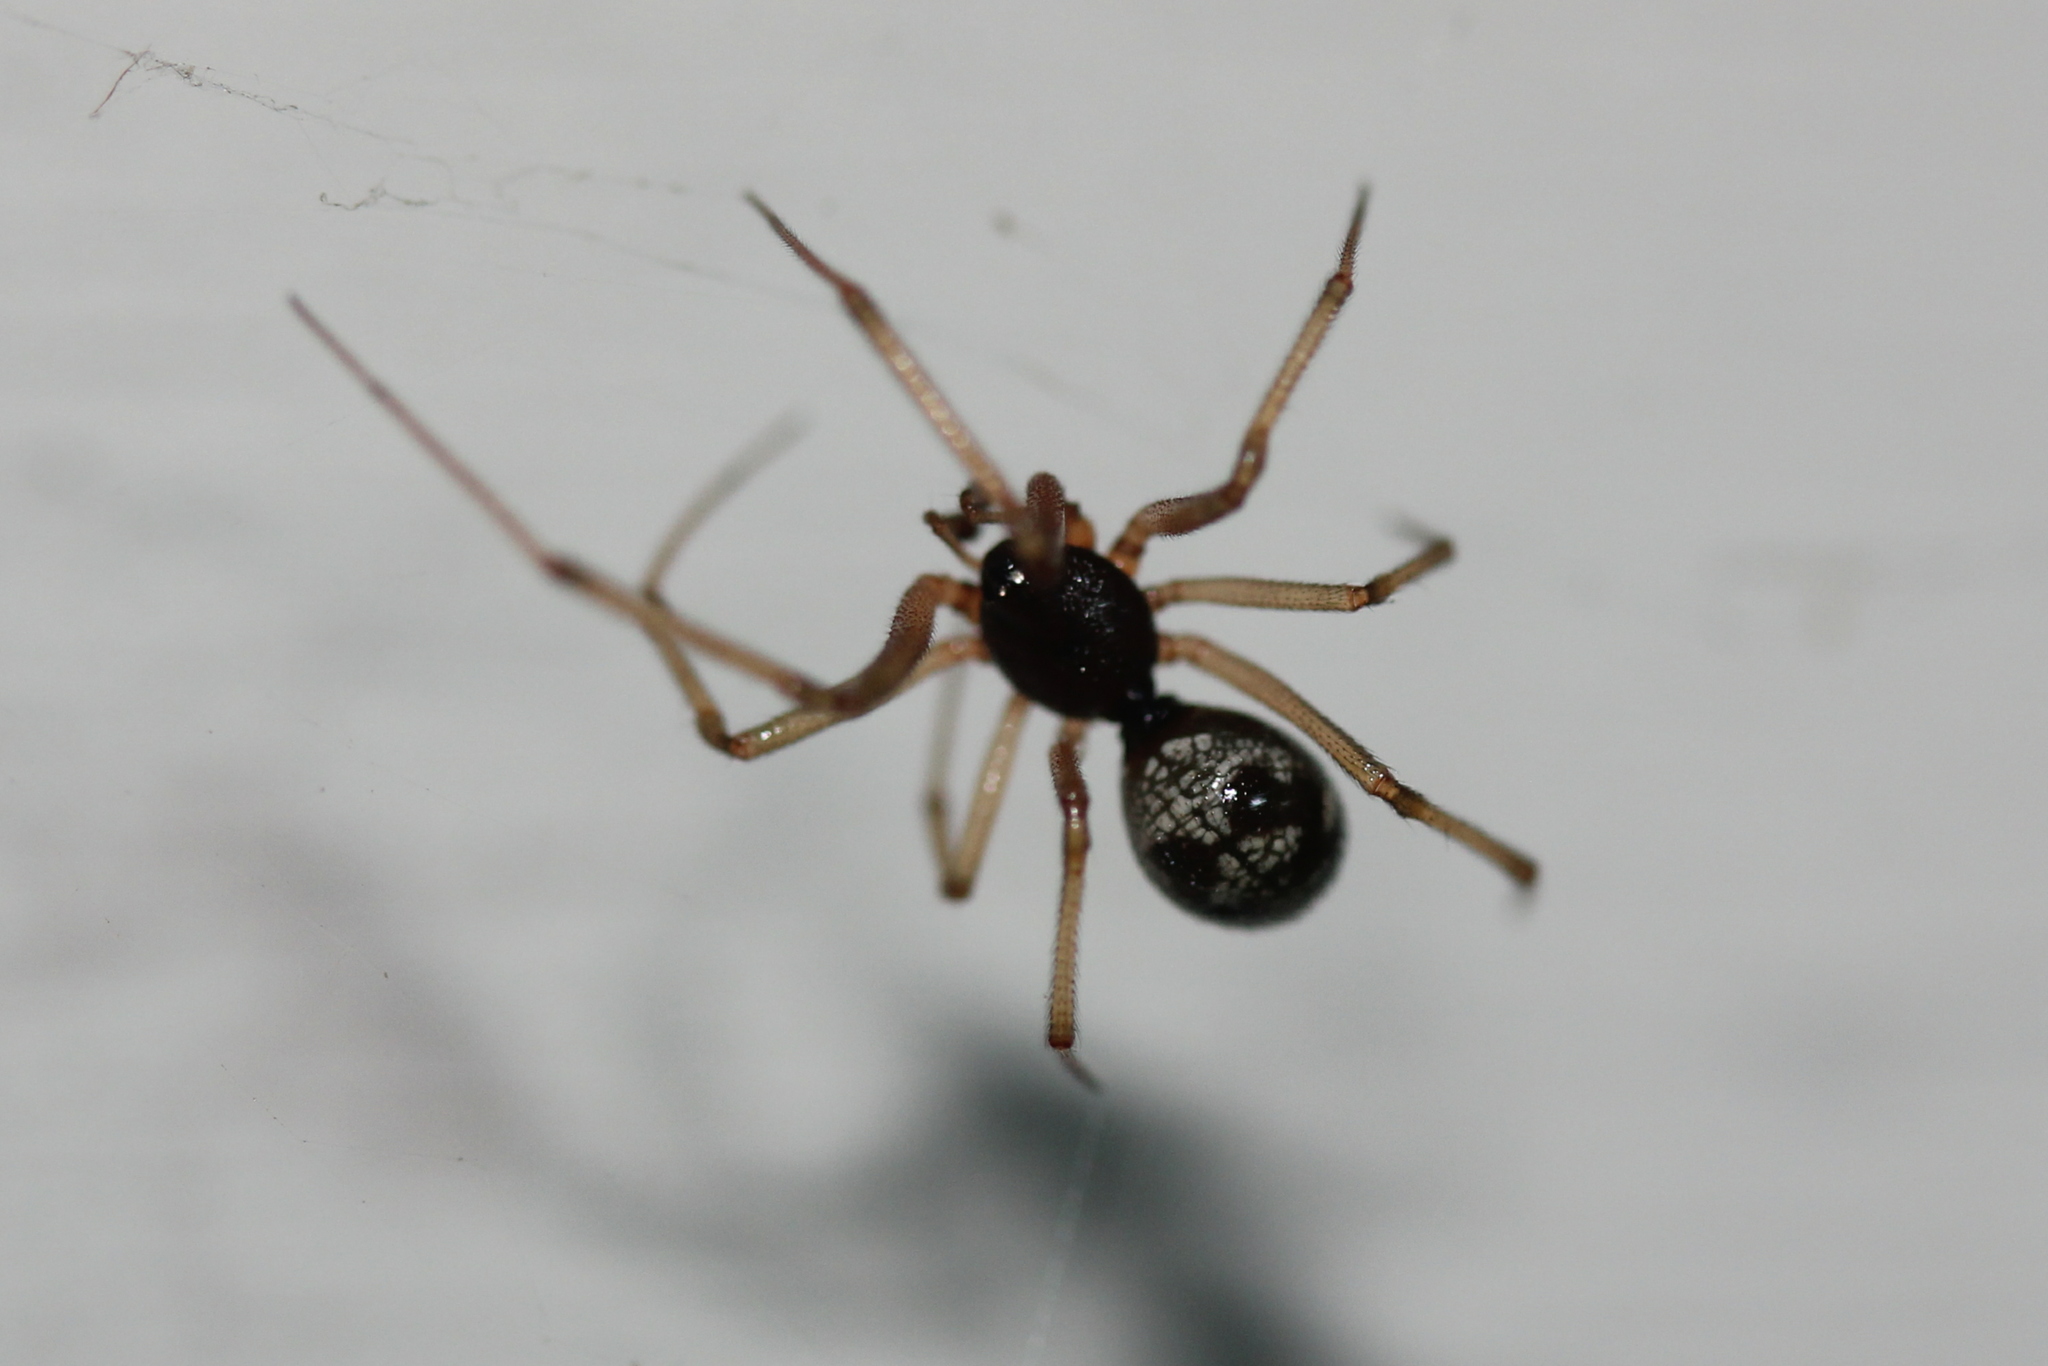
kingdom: Animalia
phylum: Arthropoda
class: Arachnida
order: Araneae
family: Theridiidae
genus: Steatoda
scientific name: Steatoda triangulosa
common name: Triangulate bud spider
